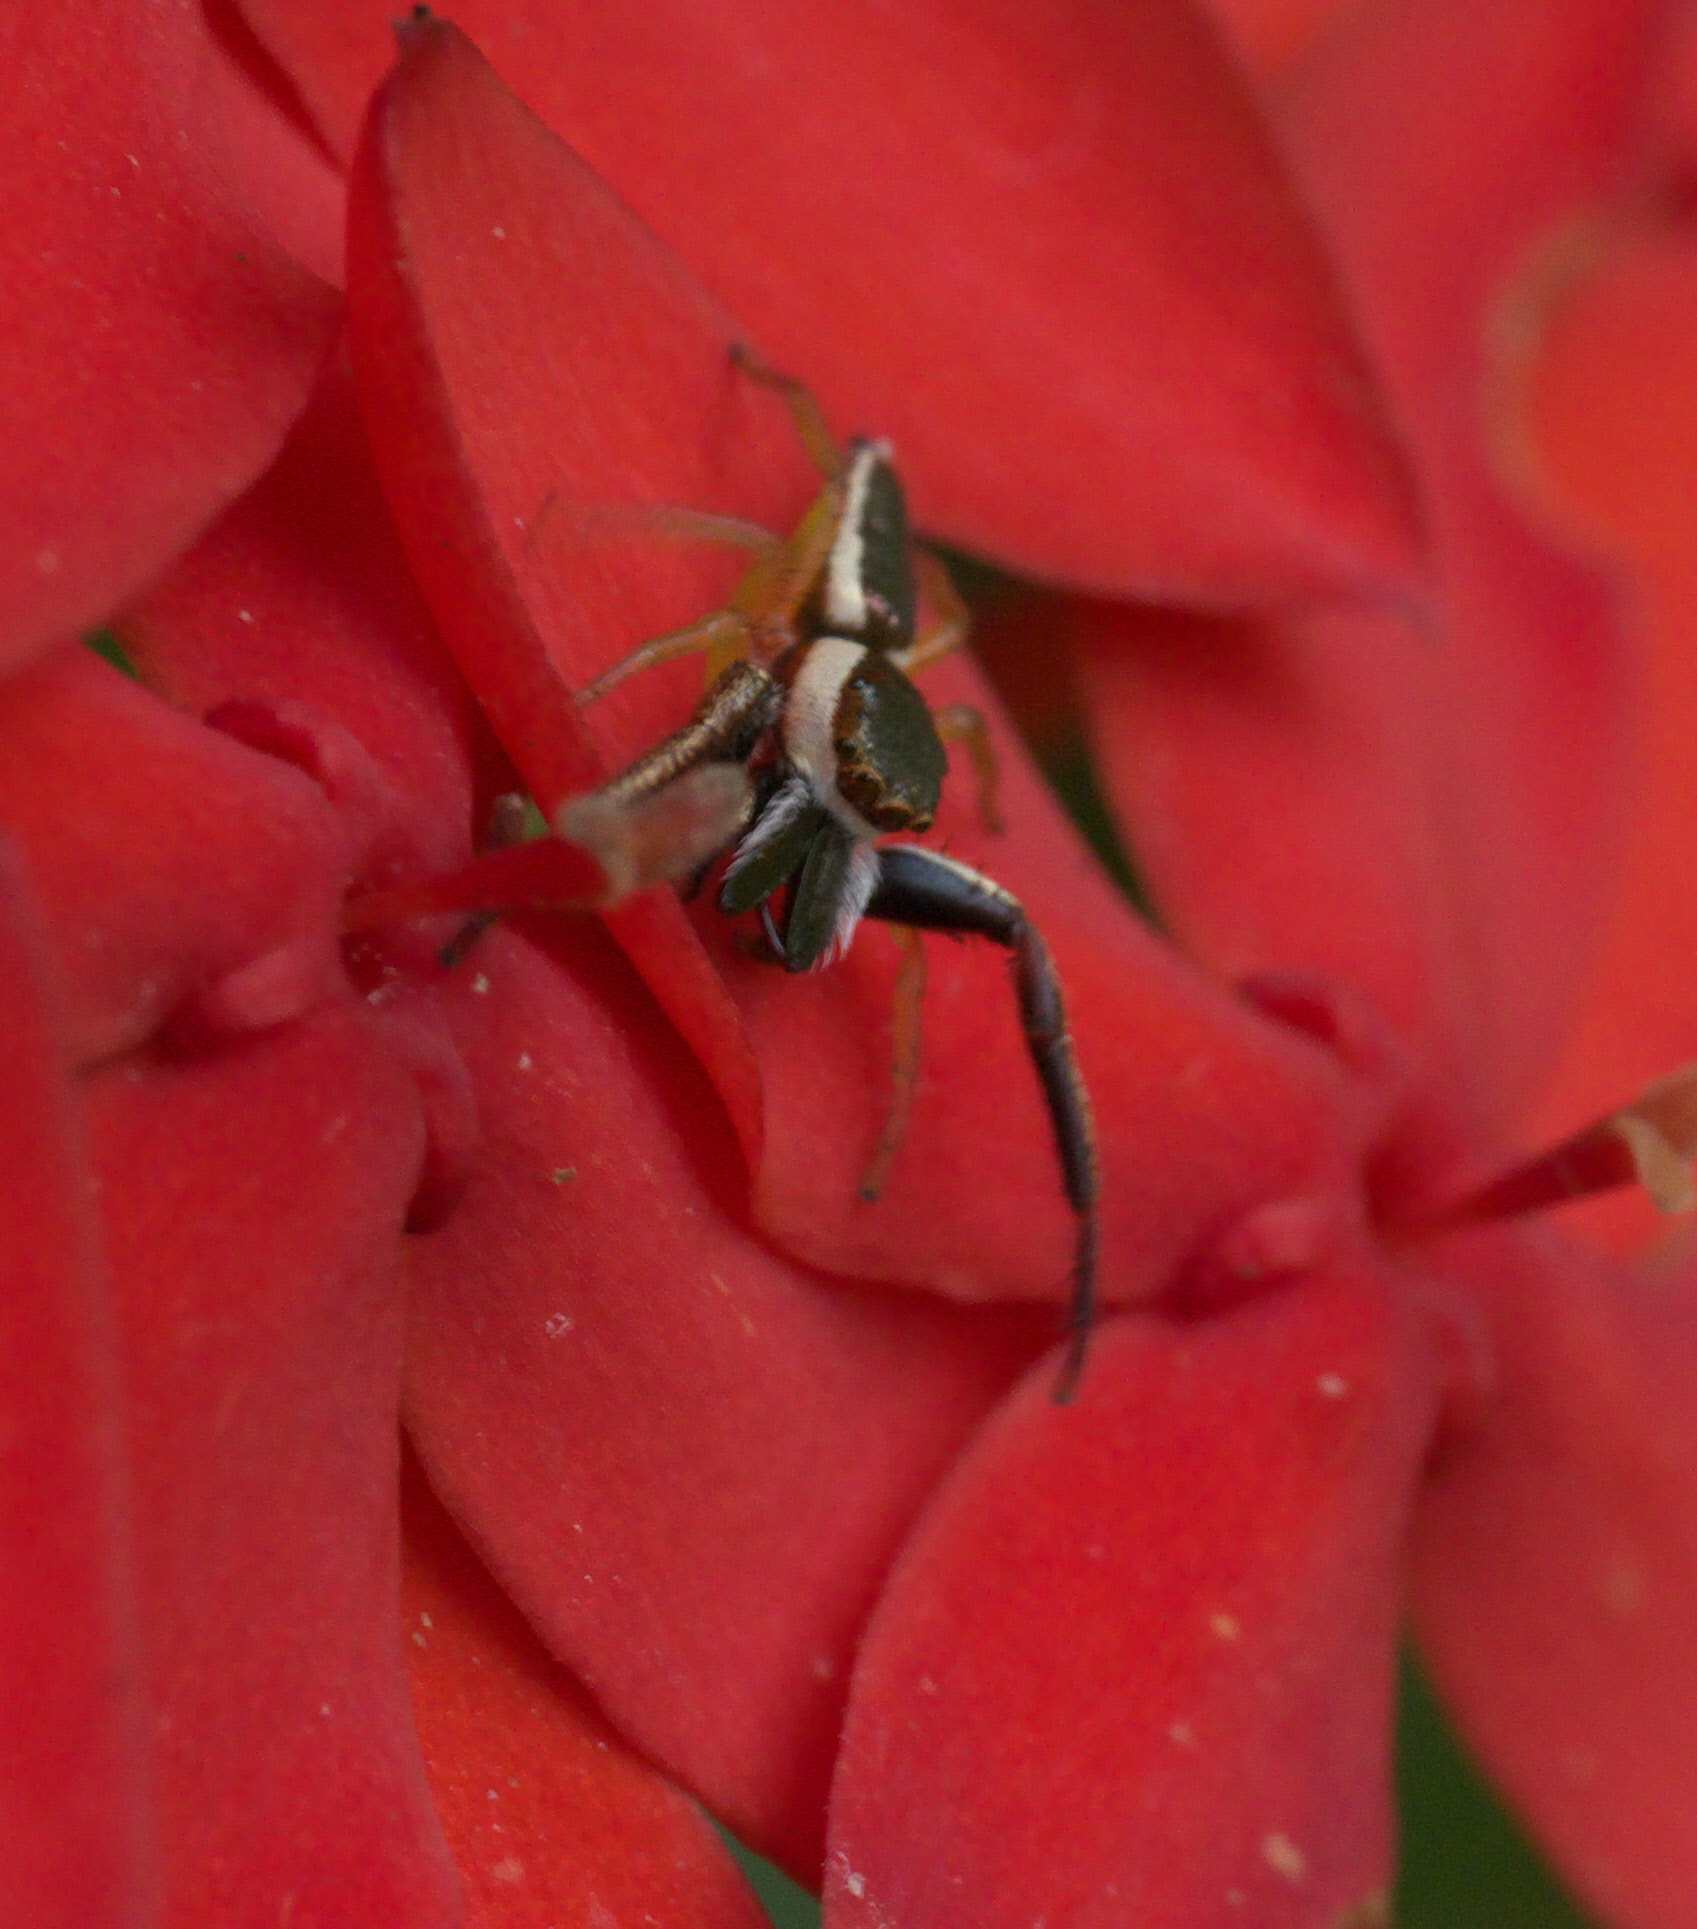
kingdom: Animalia
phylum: Arthropoda
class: Arachnida
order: Araneae
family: Salticidae
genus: Hentzia
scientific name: Hentzia palmarum
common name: Common hentz jumping spider
